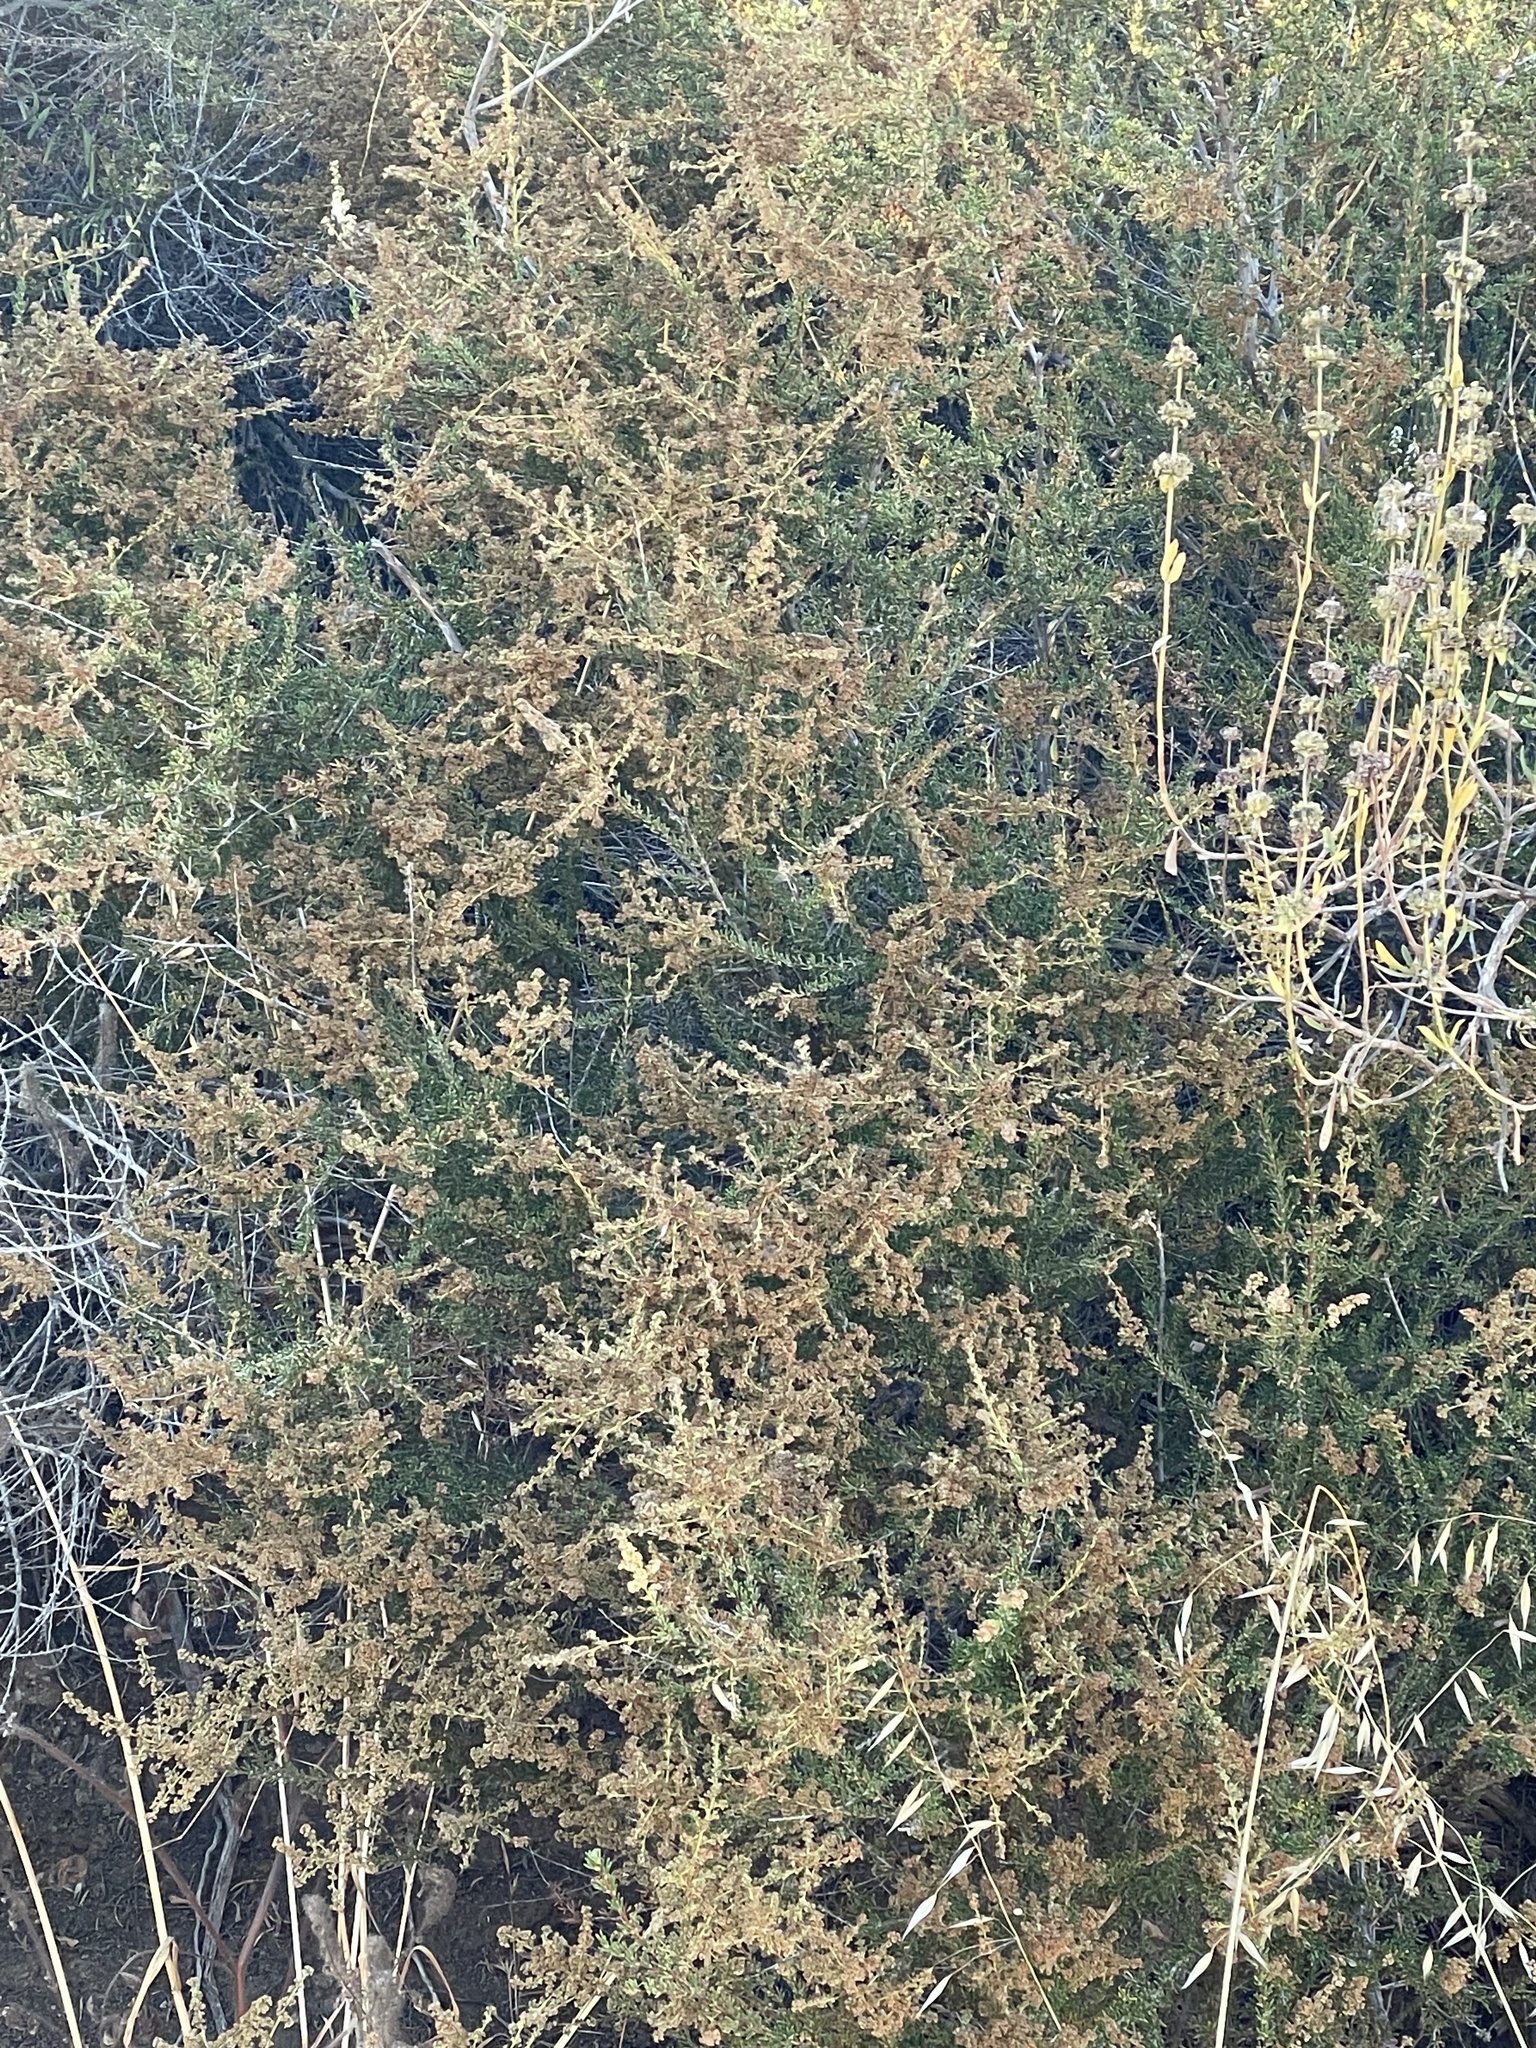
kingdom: Plantae
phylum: Tracheophyta
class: Magnoliopsida
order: Rosales
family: Rosaceae
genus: Adenostoma
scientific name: Adenostoma fasciculatum
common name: Chamise
